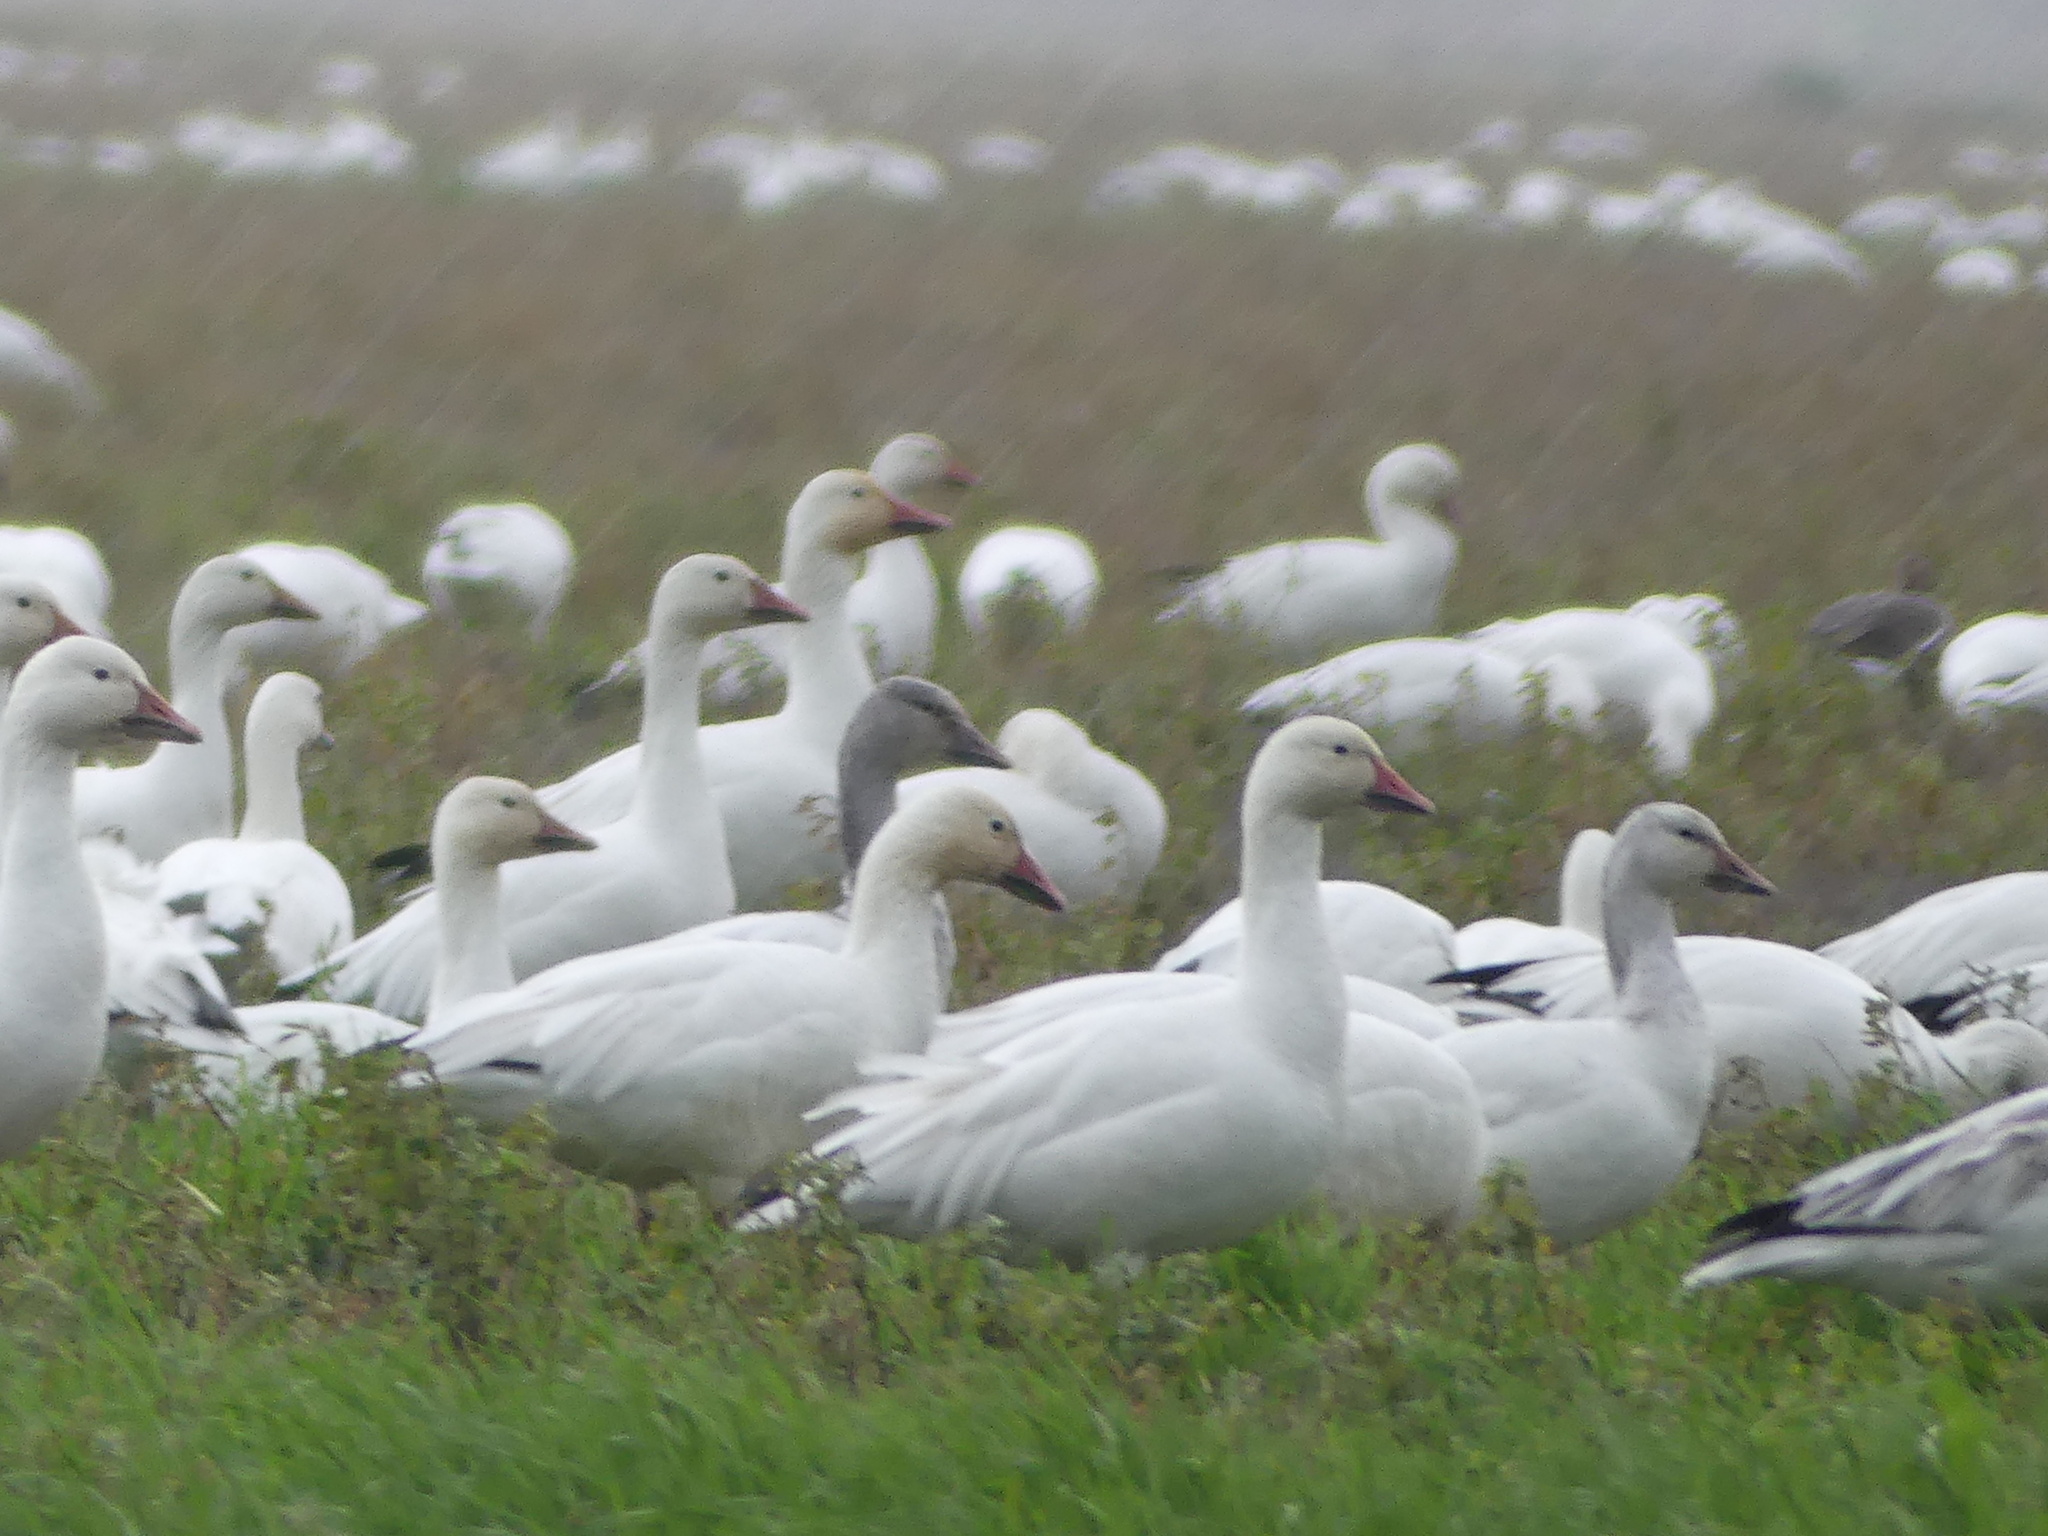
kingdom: Animalia
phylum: Chordata
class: Aves
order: Anseriformes
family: Anatidae
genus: Anser
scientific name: Anser caerulescens
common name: Snow goose
